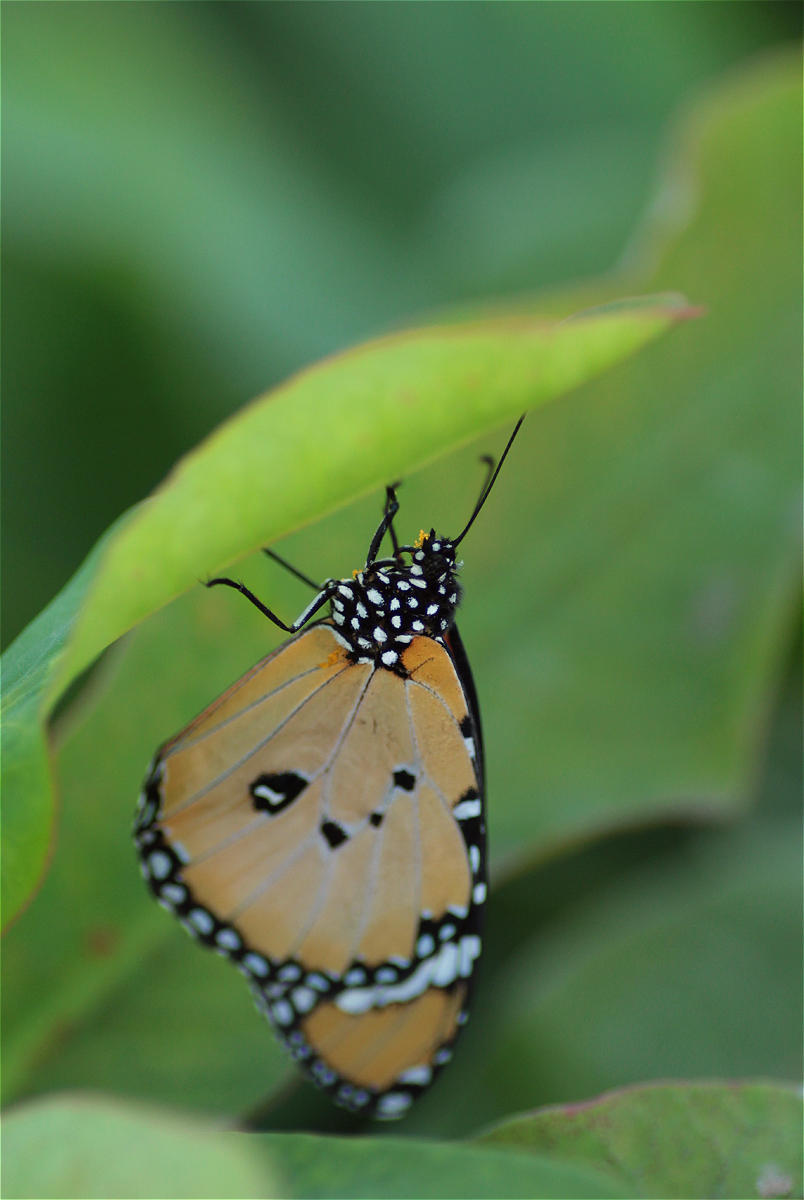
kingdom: Animalia
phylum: Arthropoda
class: Insecta
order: Lepidoptera
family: Nymphalidae
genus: Danaus
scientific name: Danaus chrysippus
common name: Plain tiger
